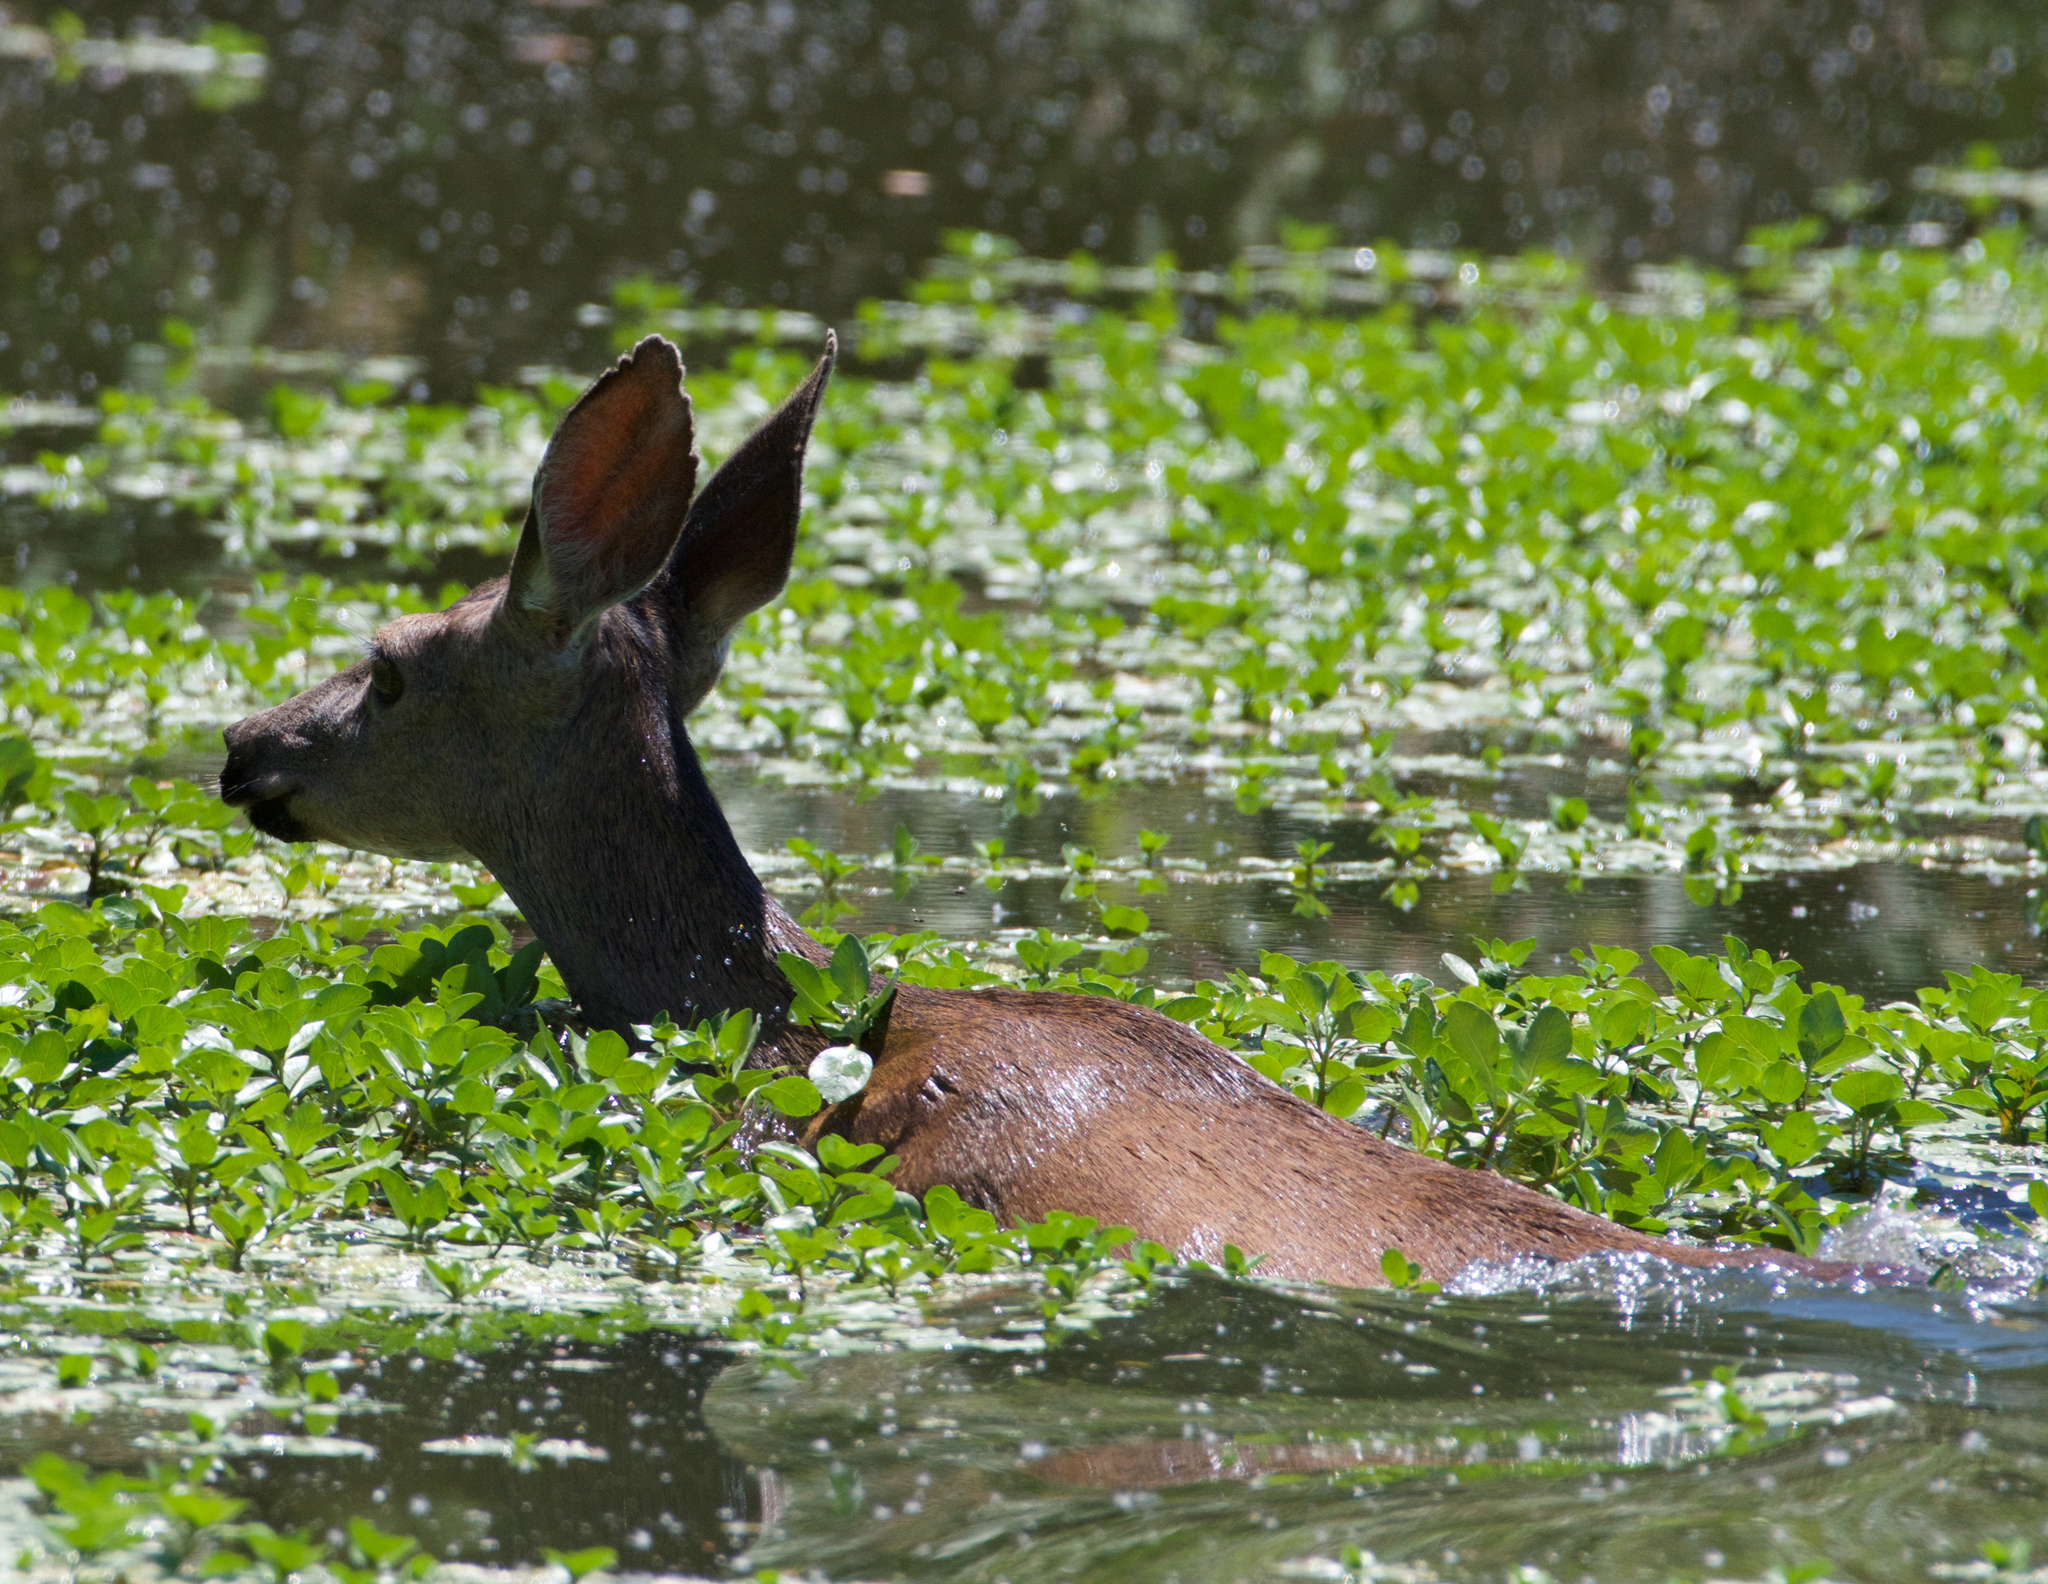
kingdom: Animalia
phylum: Chordata
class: Mammalia
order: Artiodactyla
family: Cervidae
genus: Odocoileus
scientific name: Odocoileus hemionus
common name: Mule deer
